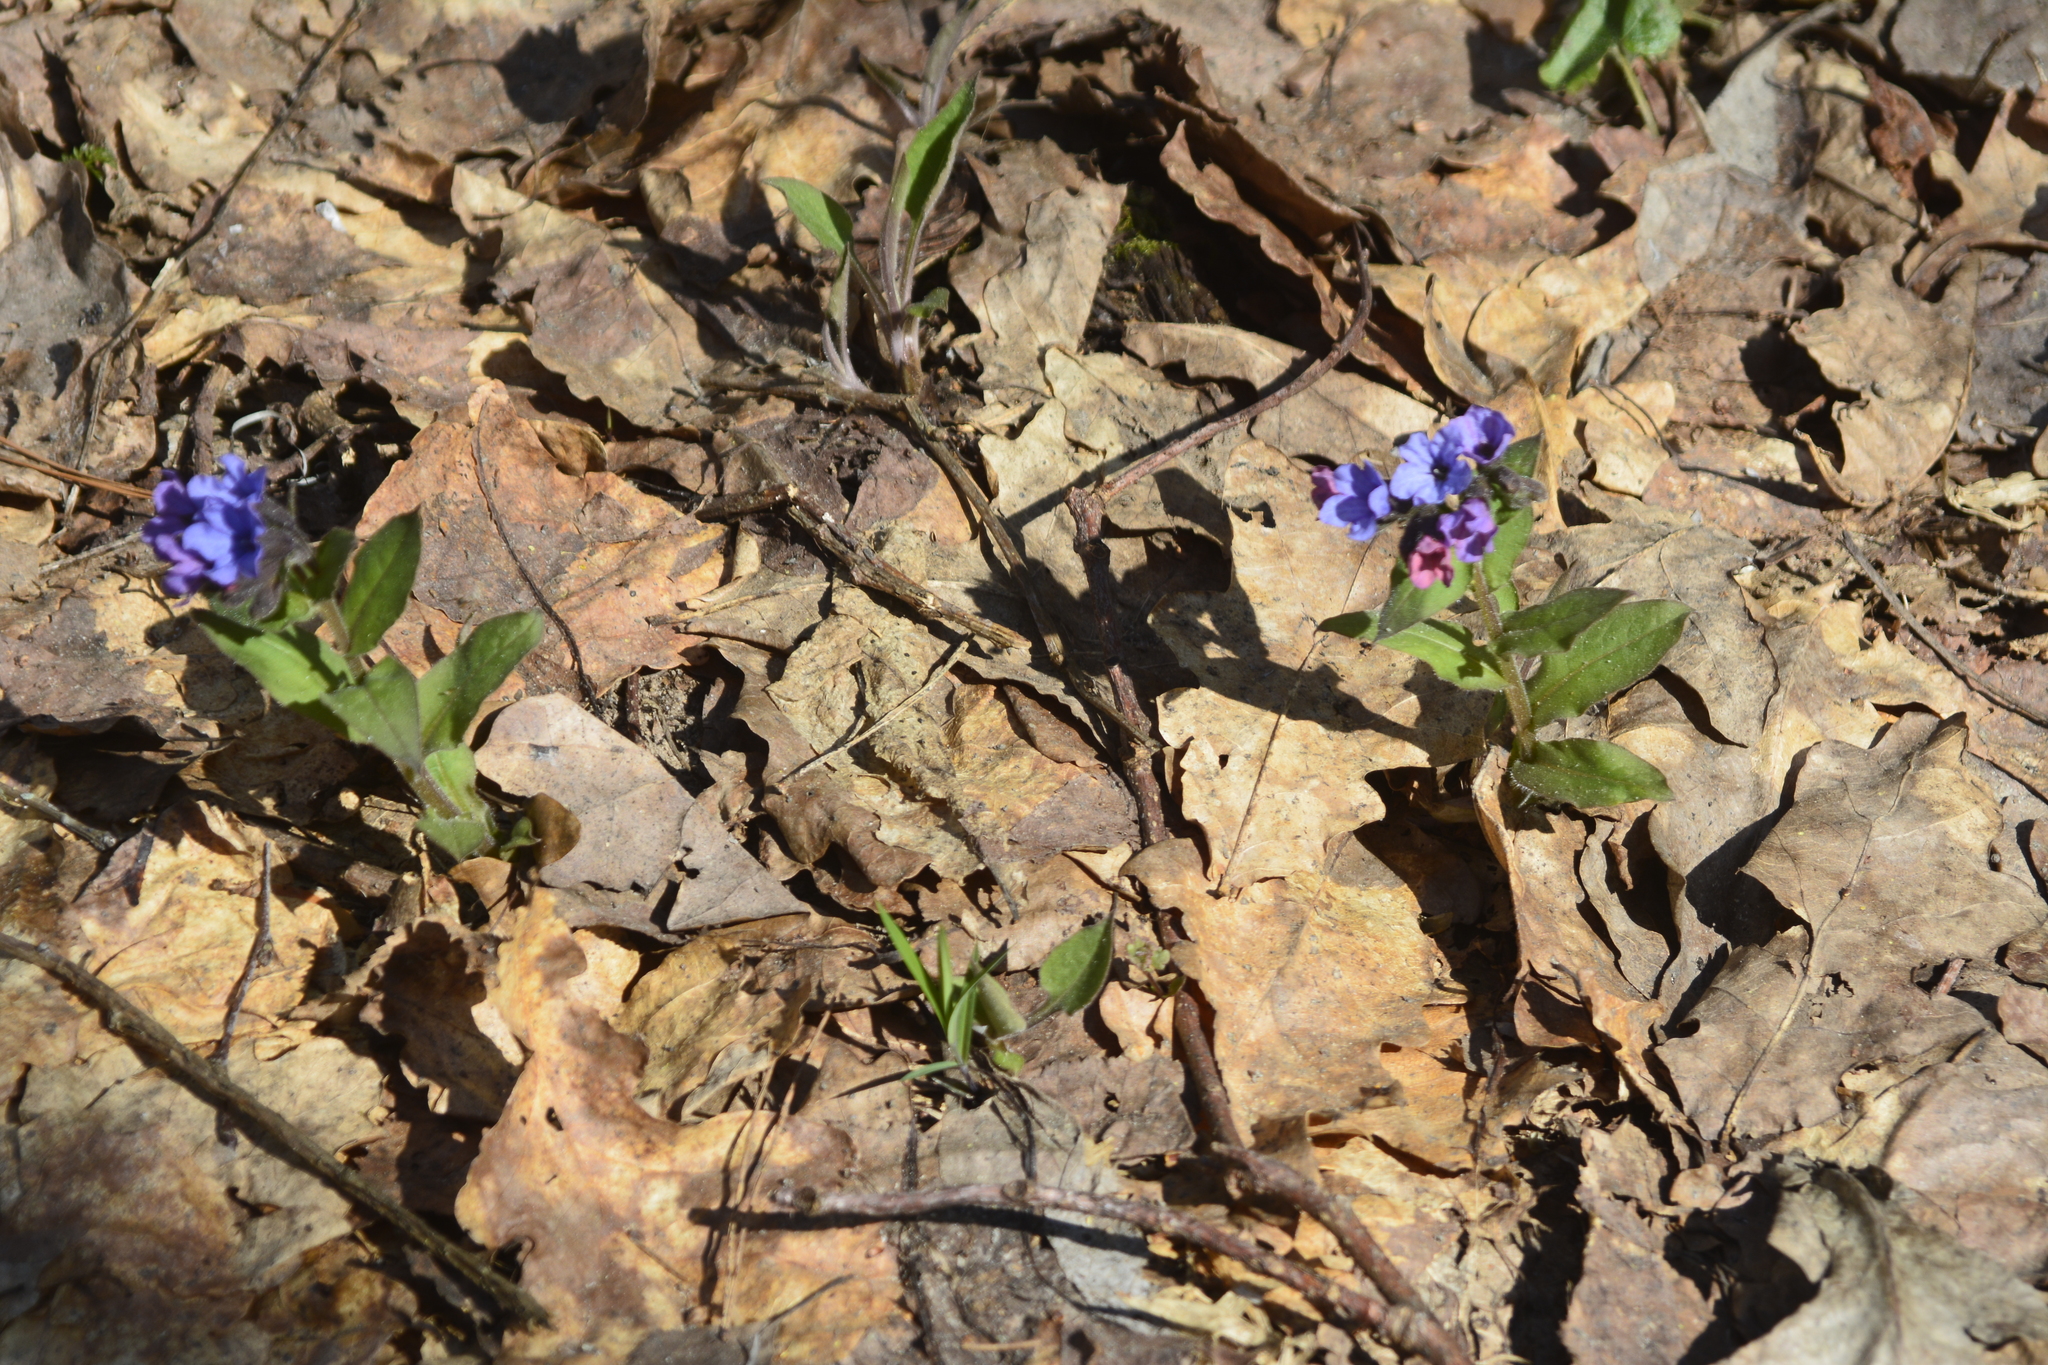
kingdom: Plantae
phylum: Tracheophyta
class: Magnoliopsida
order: Boraginales
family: Boraginaceae
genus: Pulmonaria
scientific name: Pulmonaria obscura
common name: Suffolk lungwort
